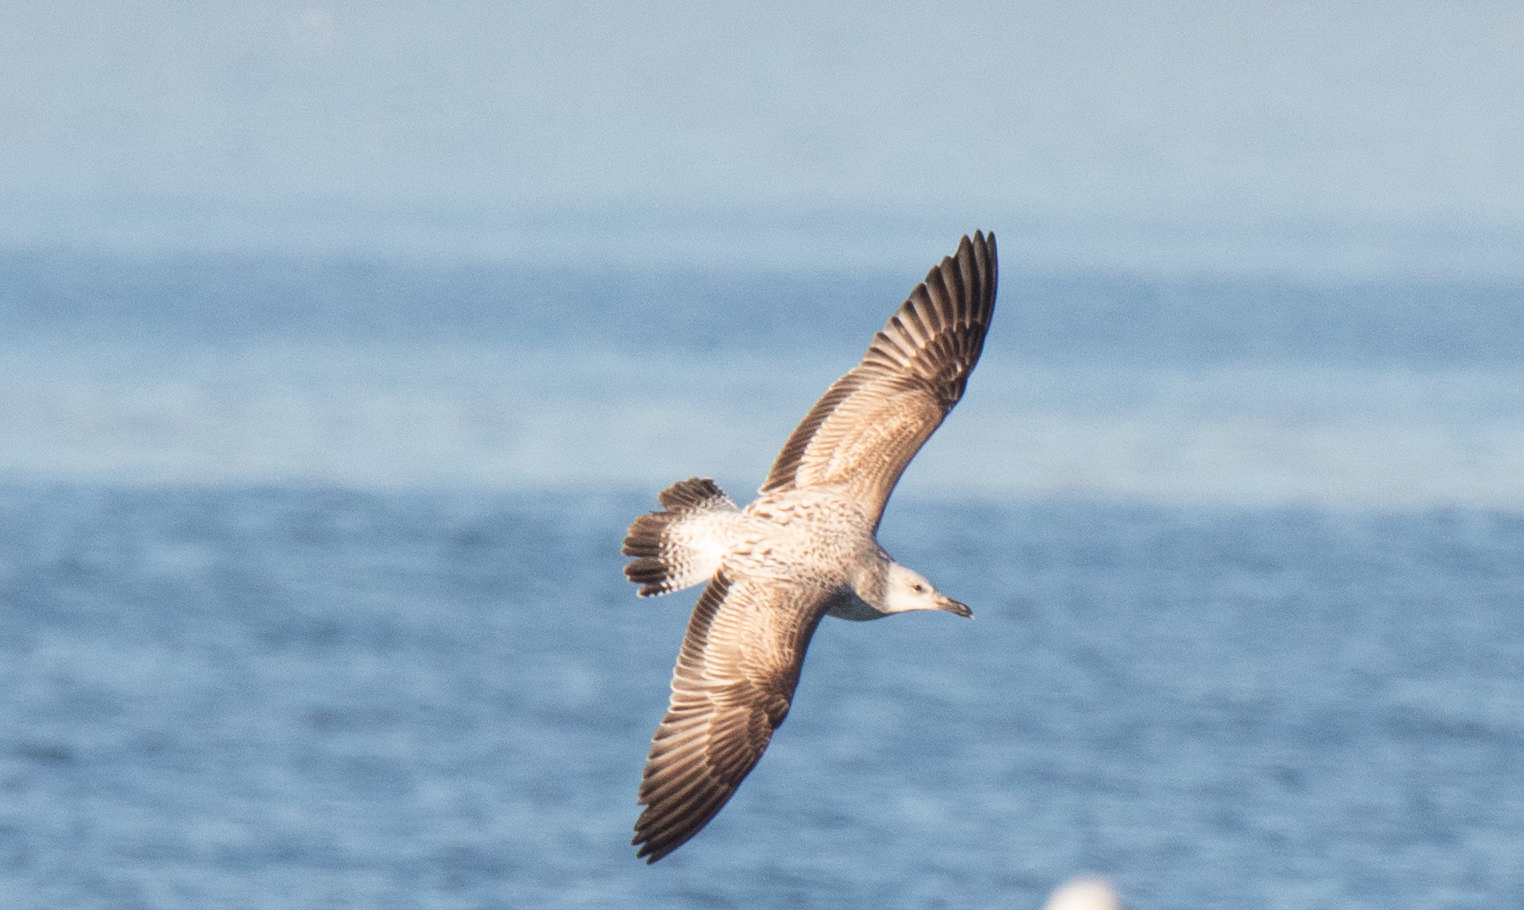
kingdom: Animalia
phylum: Chordata
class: Aves
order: Charadriiformes
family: Laridae
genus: Larus
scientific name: Larus cachinnans
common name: Caspian gull
